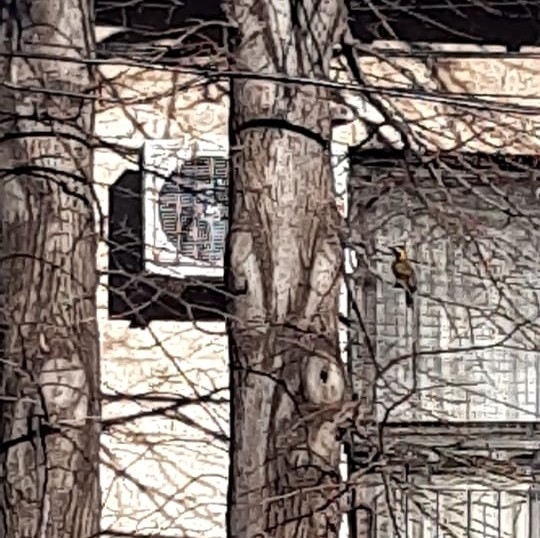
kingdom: Animalia
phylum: Chordata
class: Aves
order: Piciformes
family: Picidae
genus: Colaptes
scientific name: Colaptes melanochloros
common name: Green-barred woodpecker
